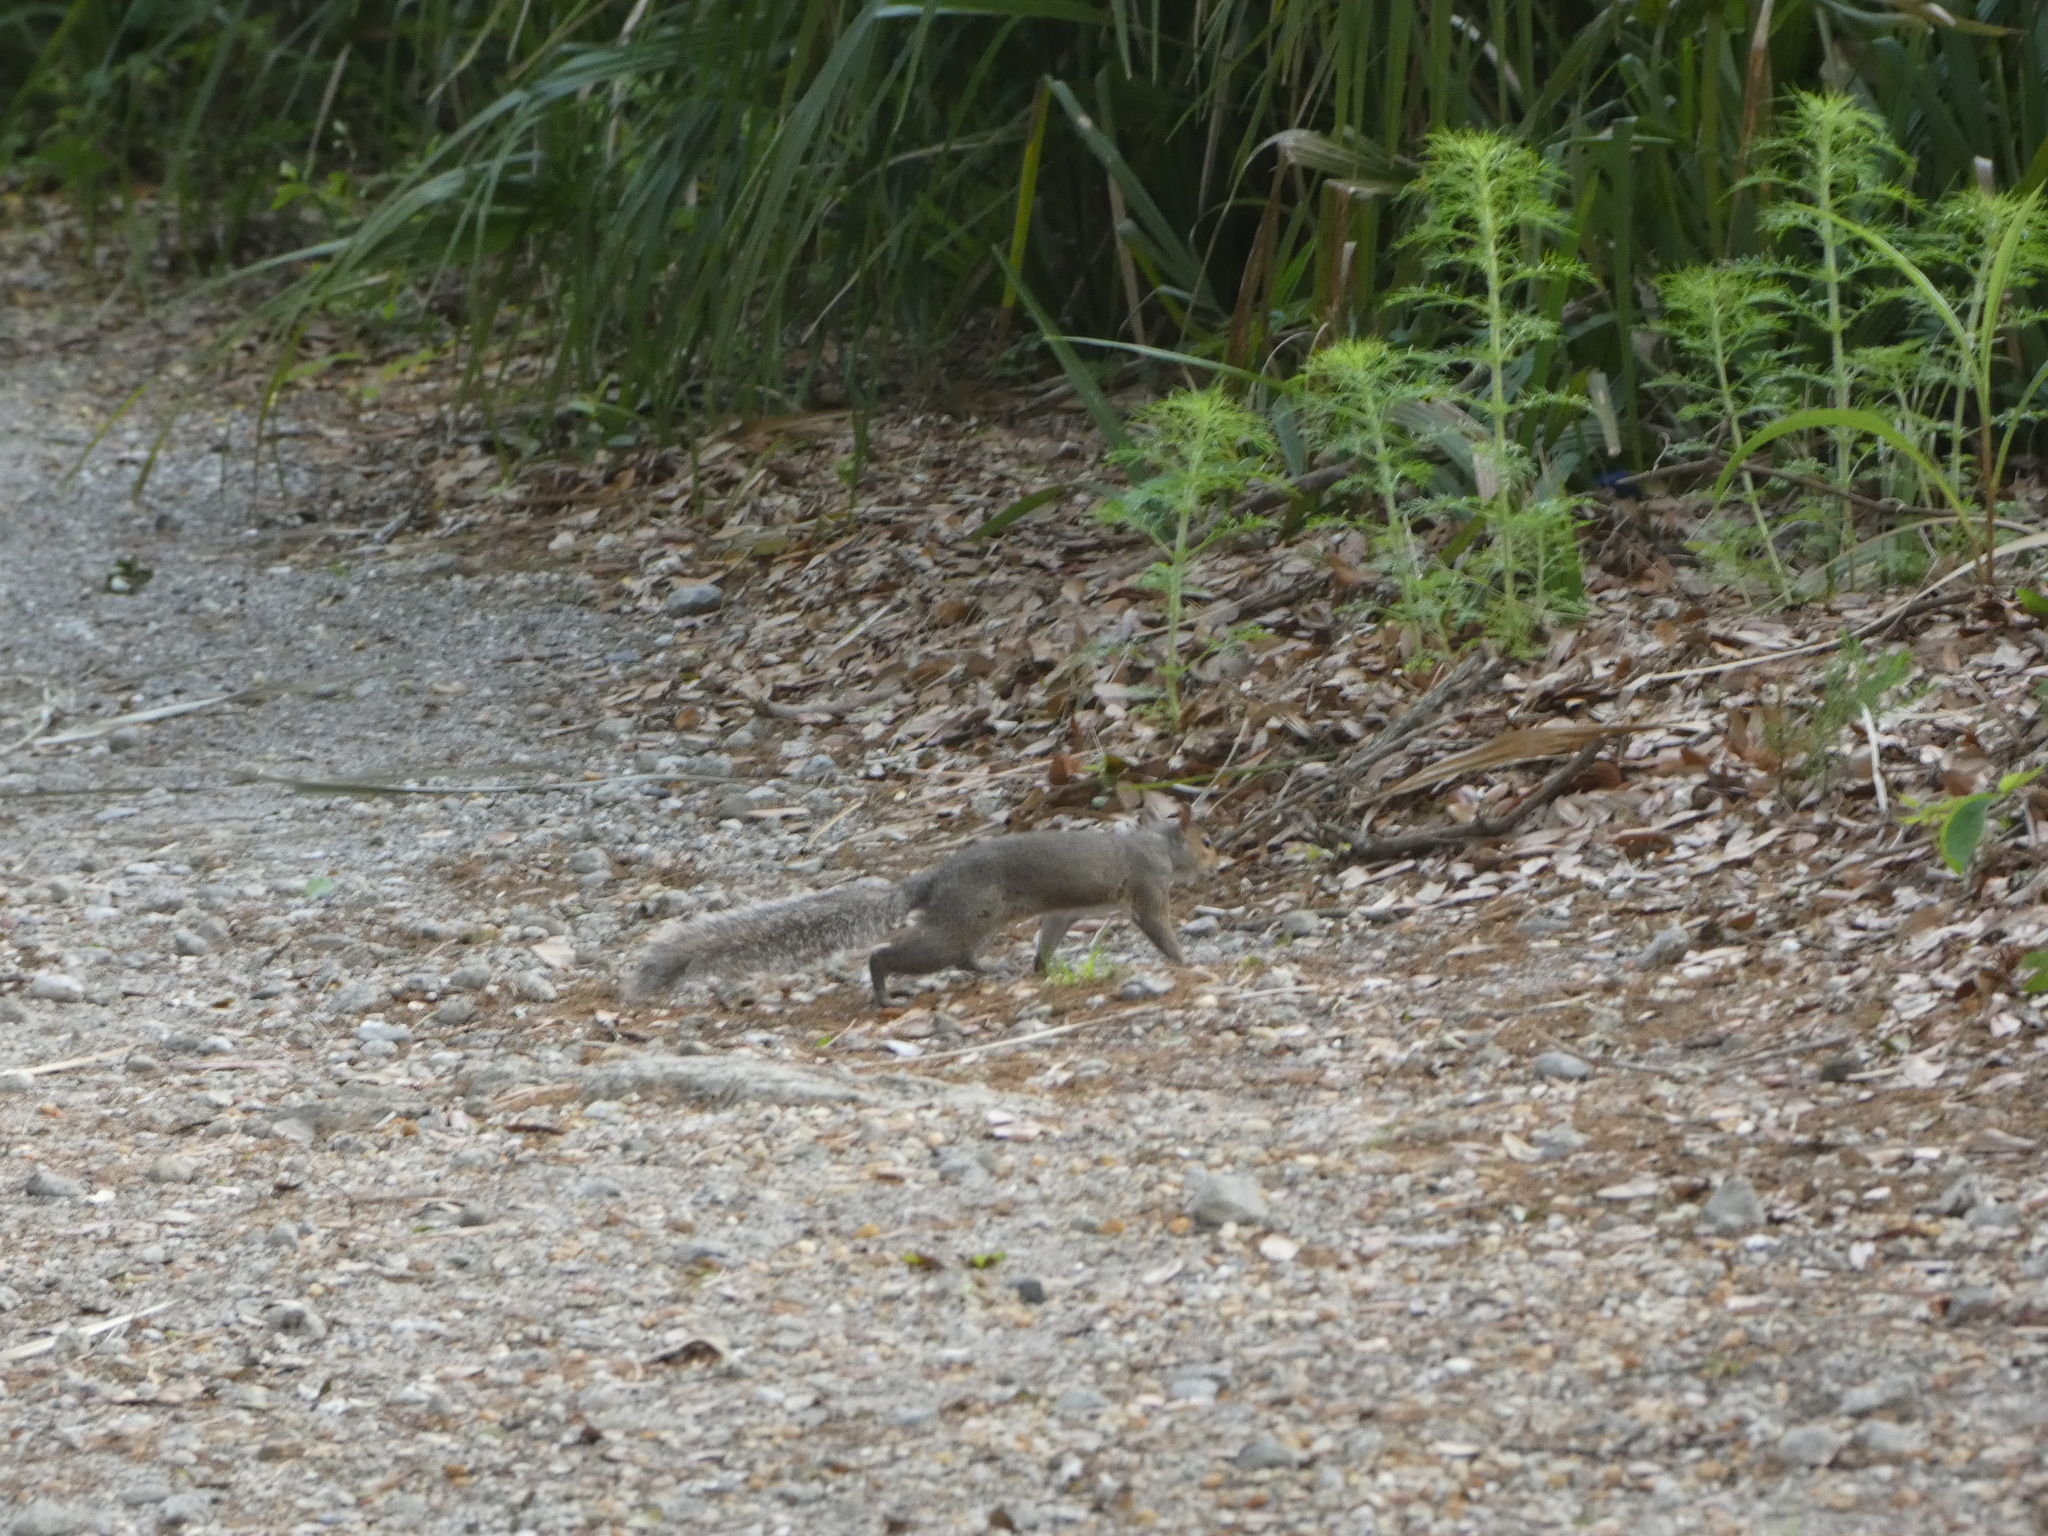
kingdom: Animalia
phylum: Chordata
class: Mammalia
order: Rodentia
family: Sciuridae
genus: Sciurus
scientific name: Sciurus carolinensis
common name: Eastern gray squirrel
